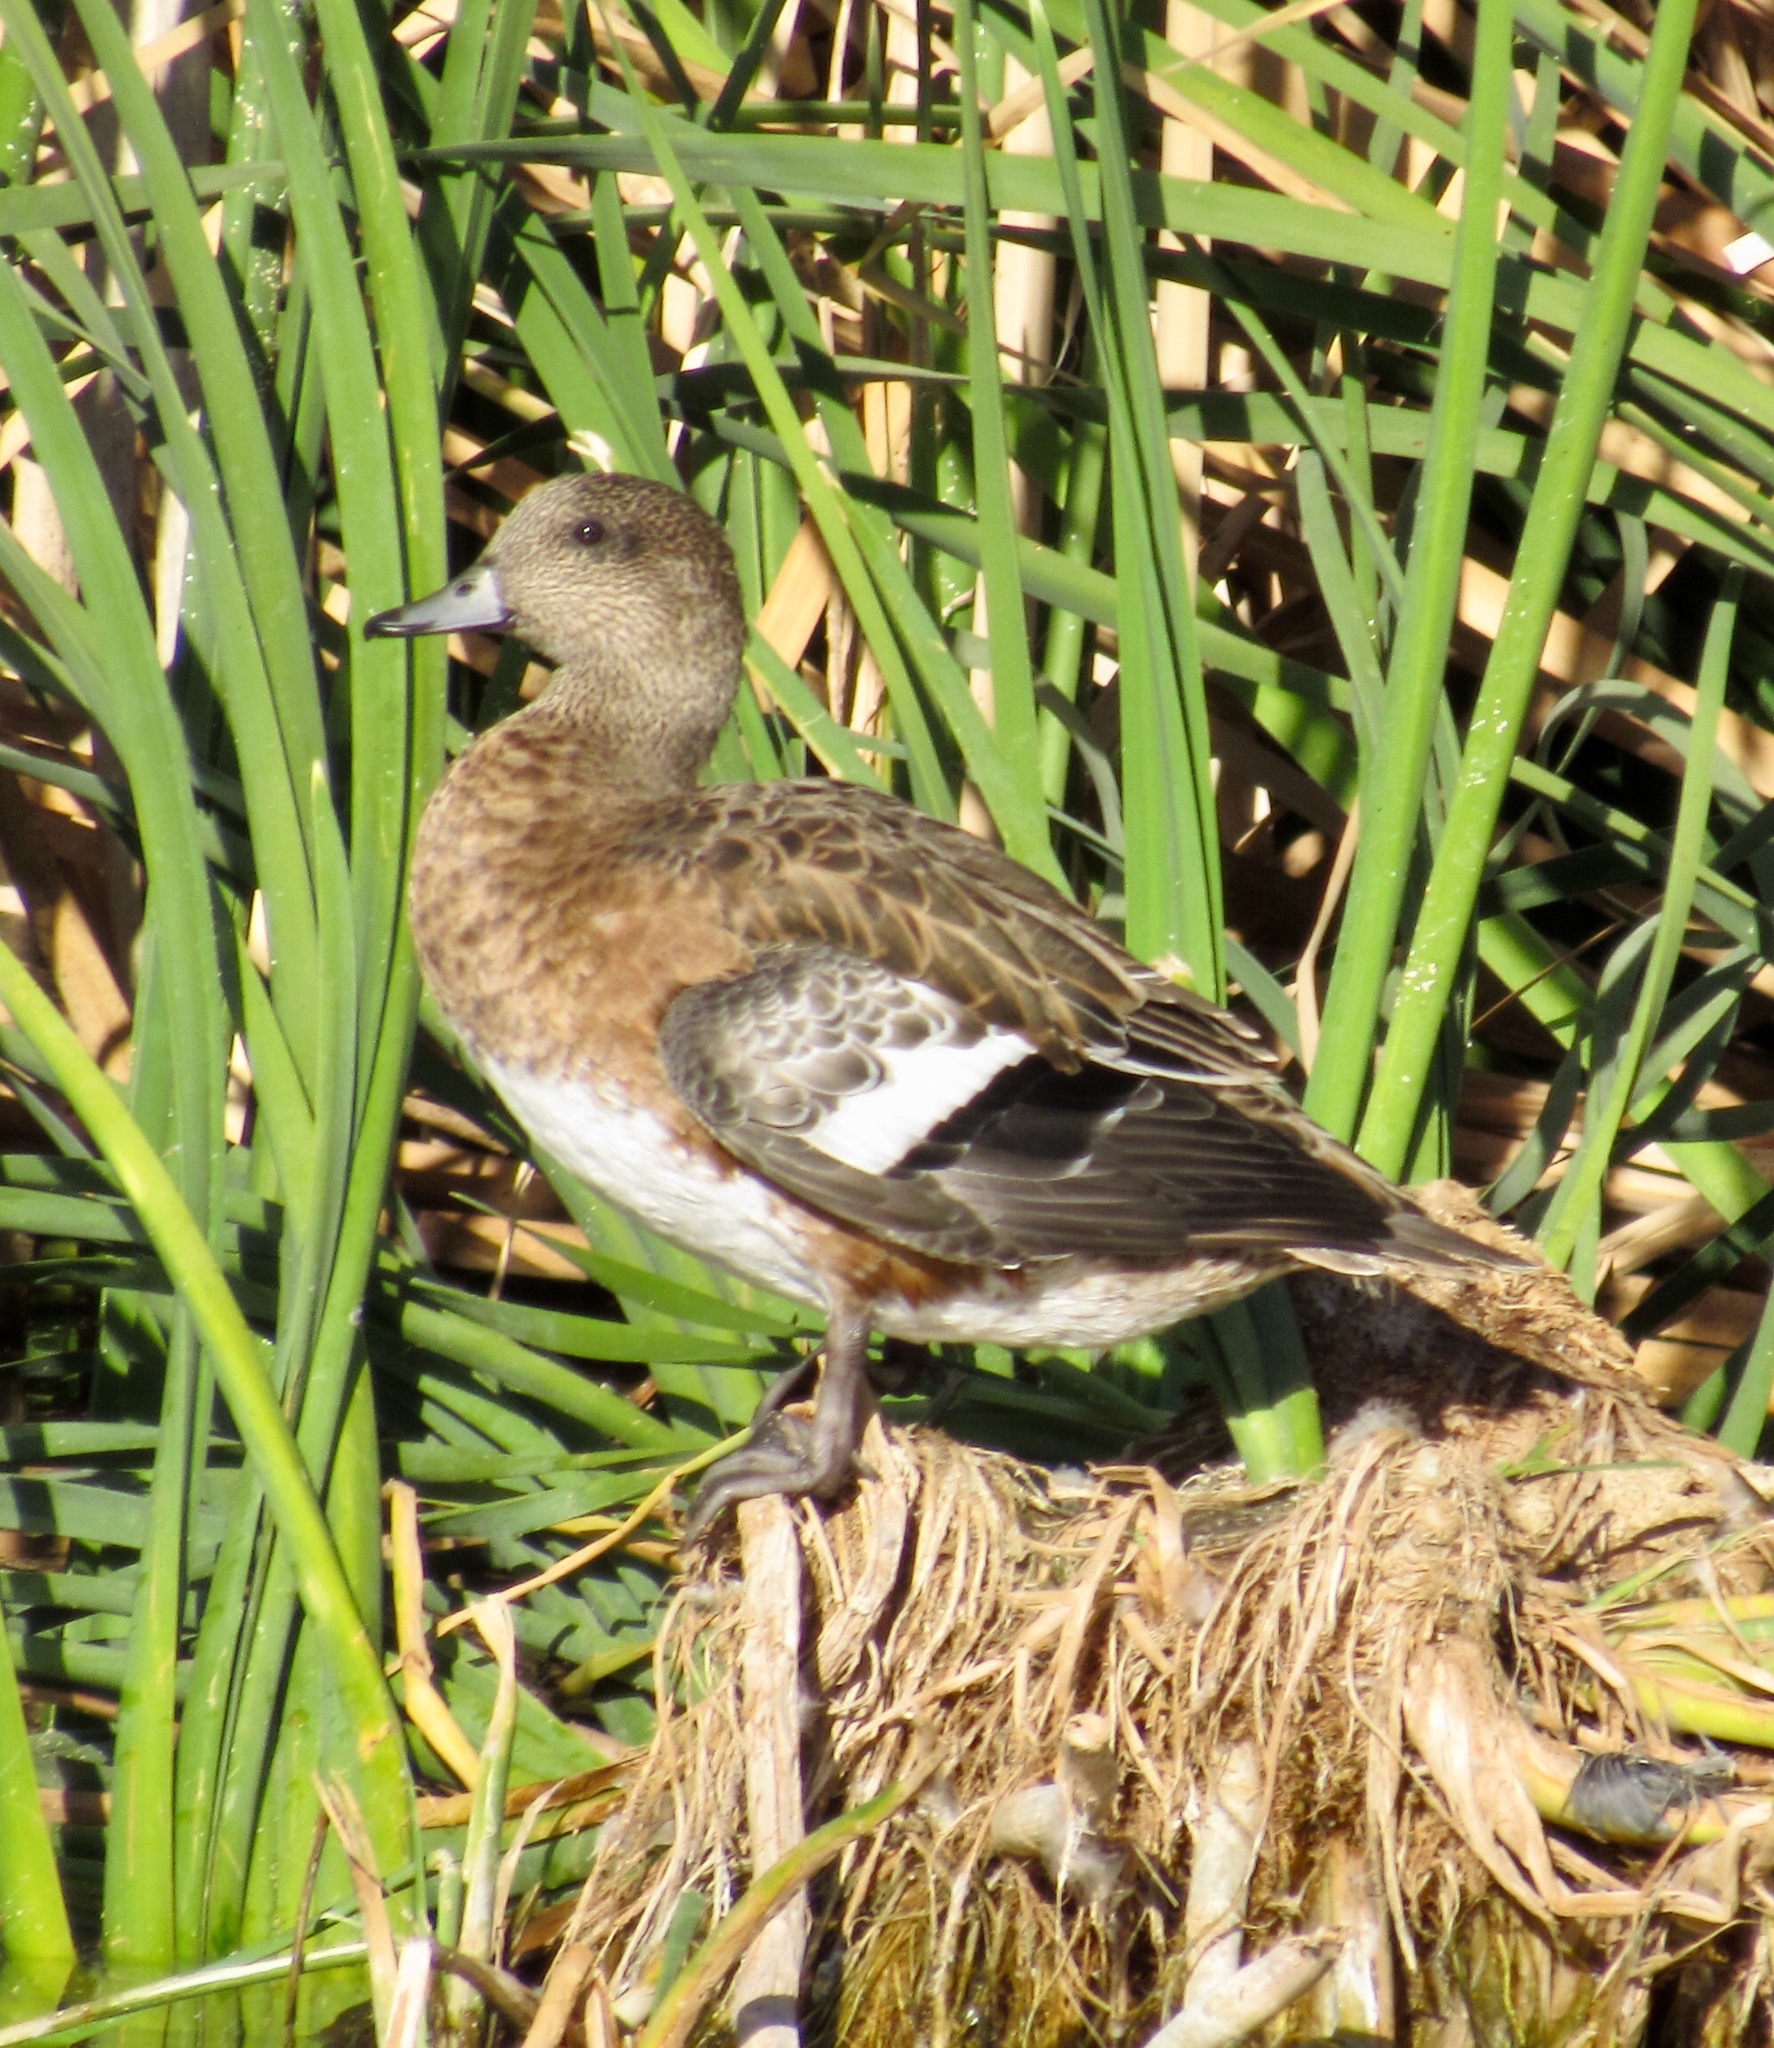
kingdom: Animalia
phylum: Chordata
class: Aves
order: Anseriformes
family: Anatidae
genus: Mareca
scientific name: Mareca americana
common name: American wigeon
